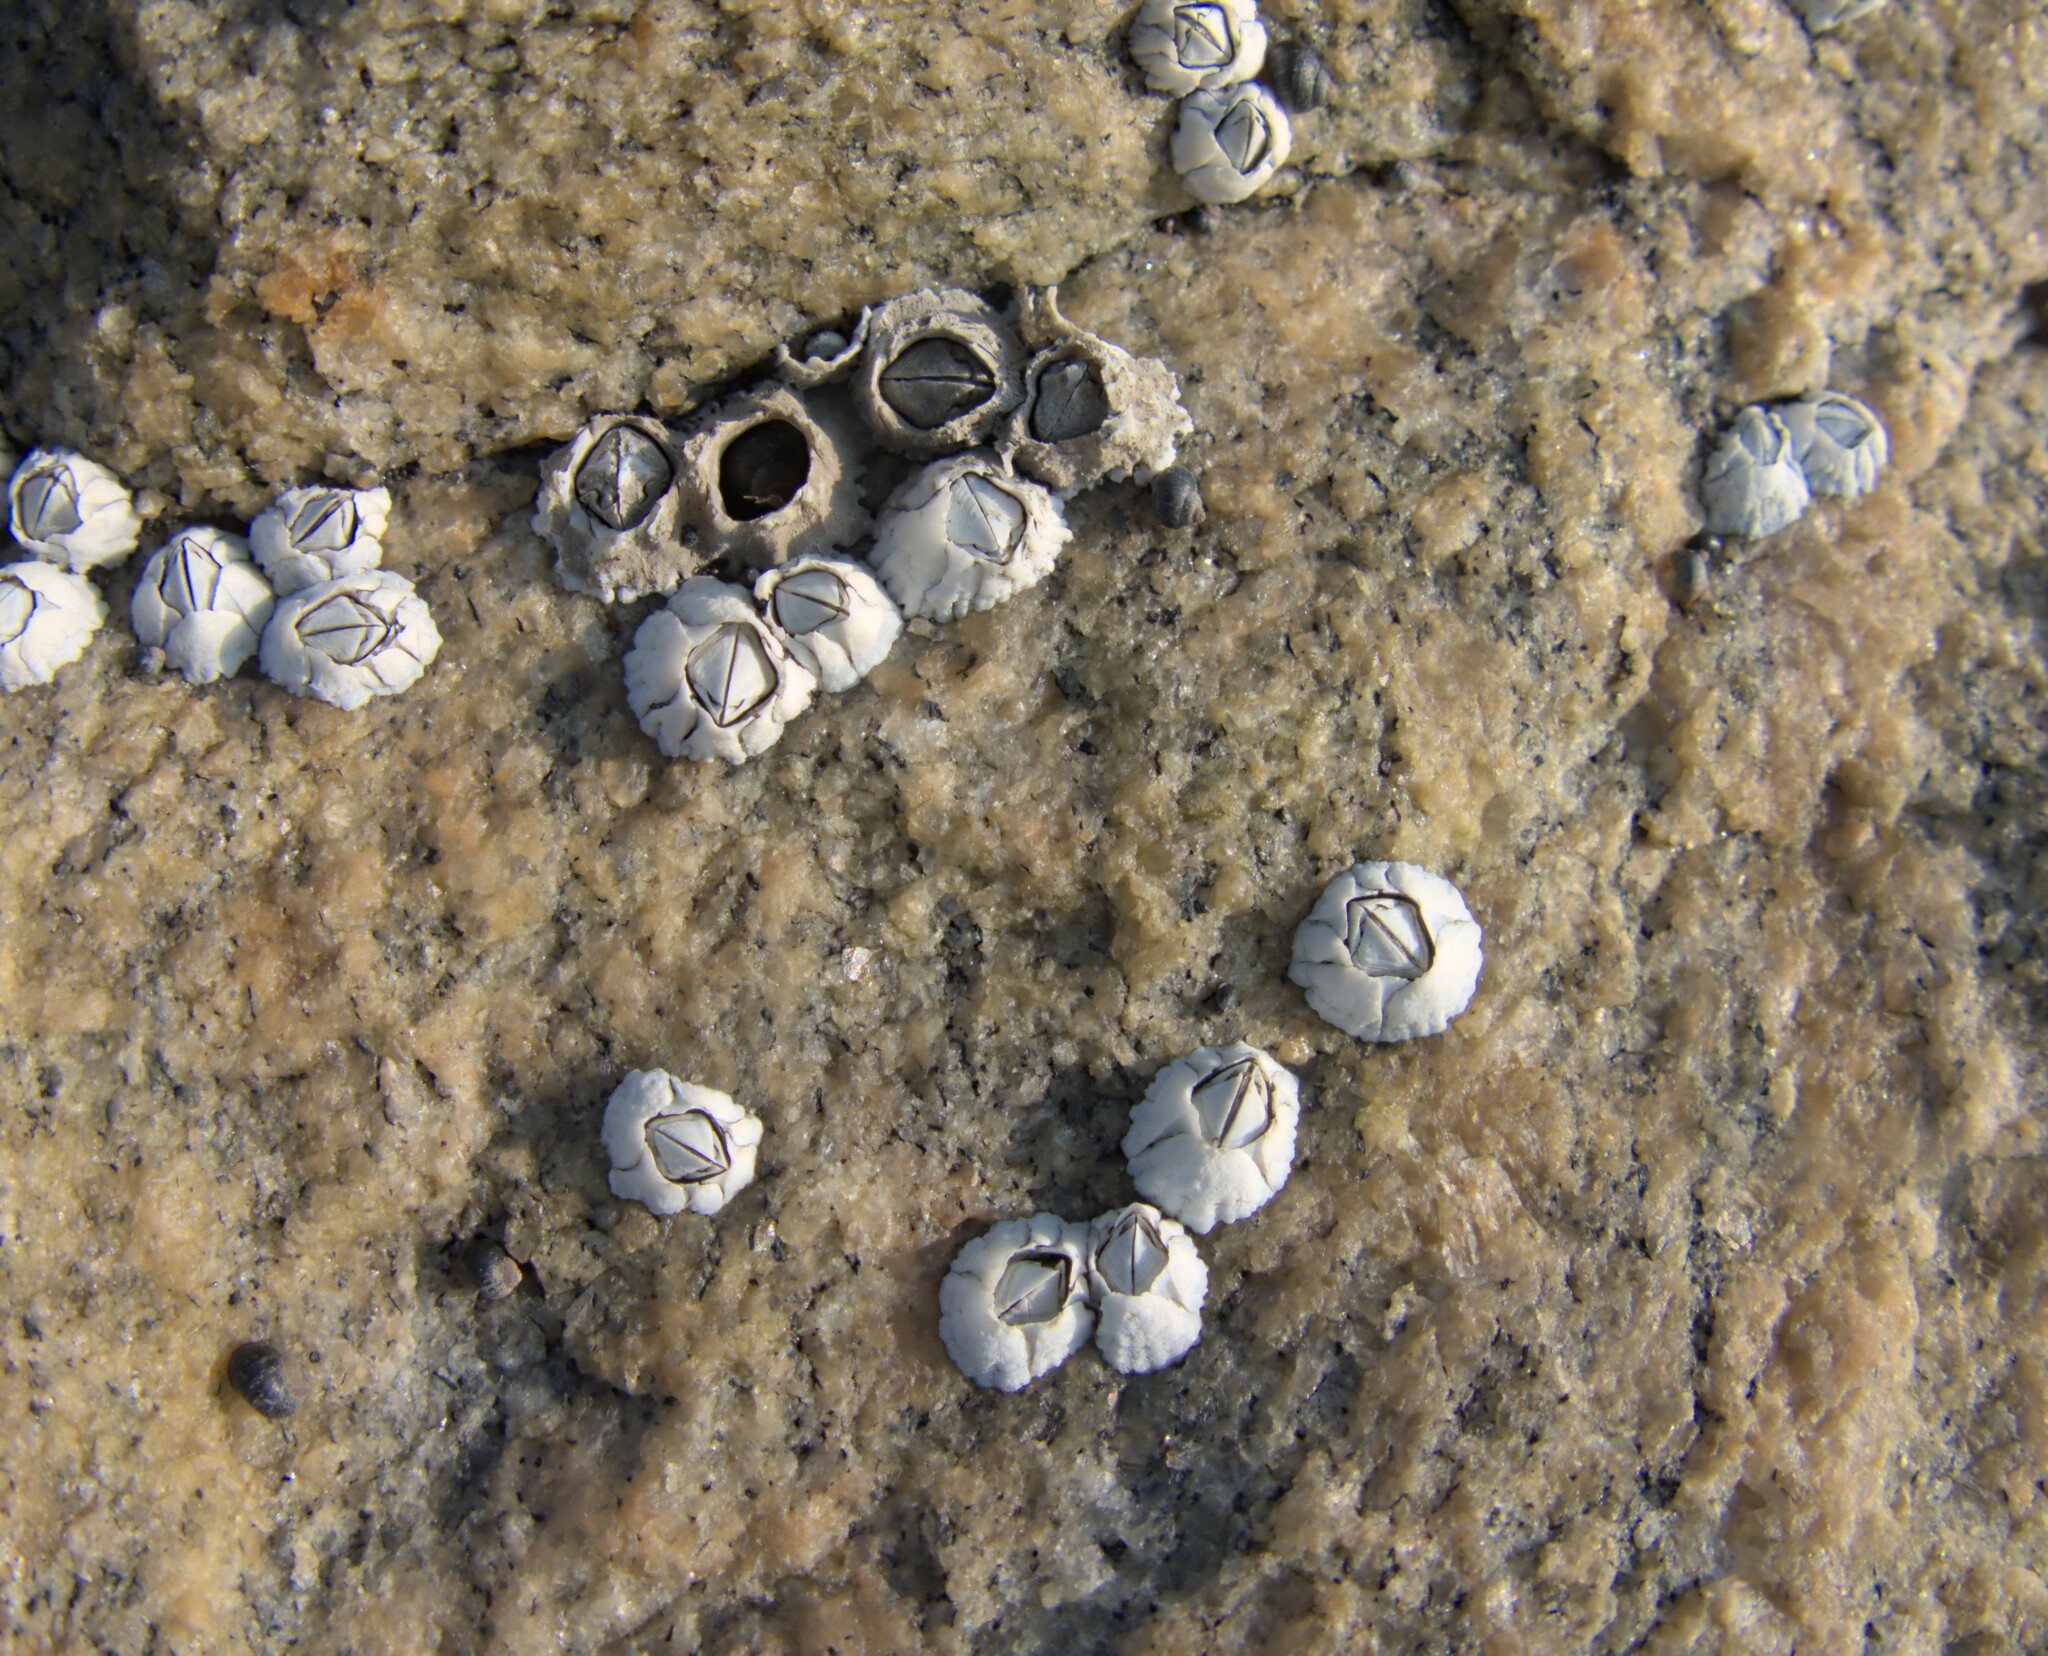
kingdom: Animalia
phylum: Arthropoda
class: Maxillopoda
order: Sessilia
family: Archaeobalanidae
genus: Semibalanus
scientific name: Semibalanus balanoides
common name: Acorn barnacle
